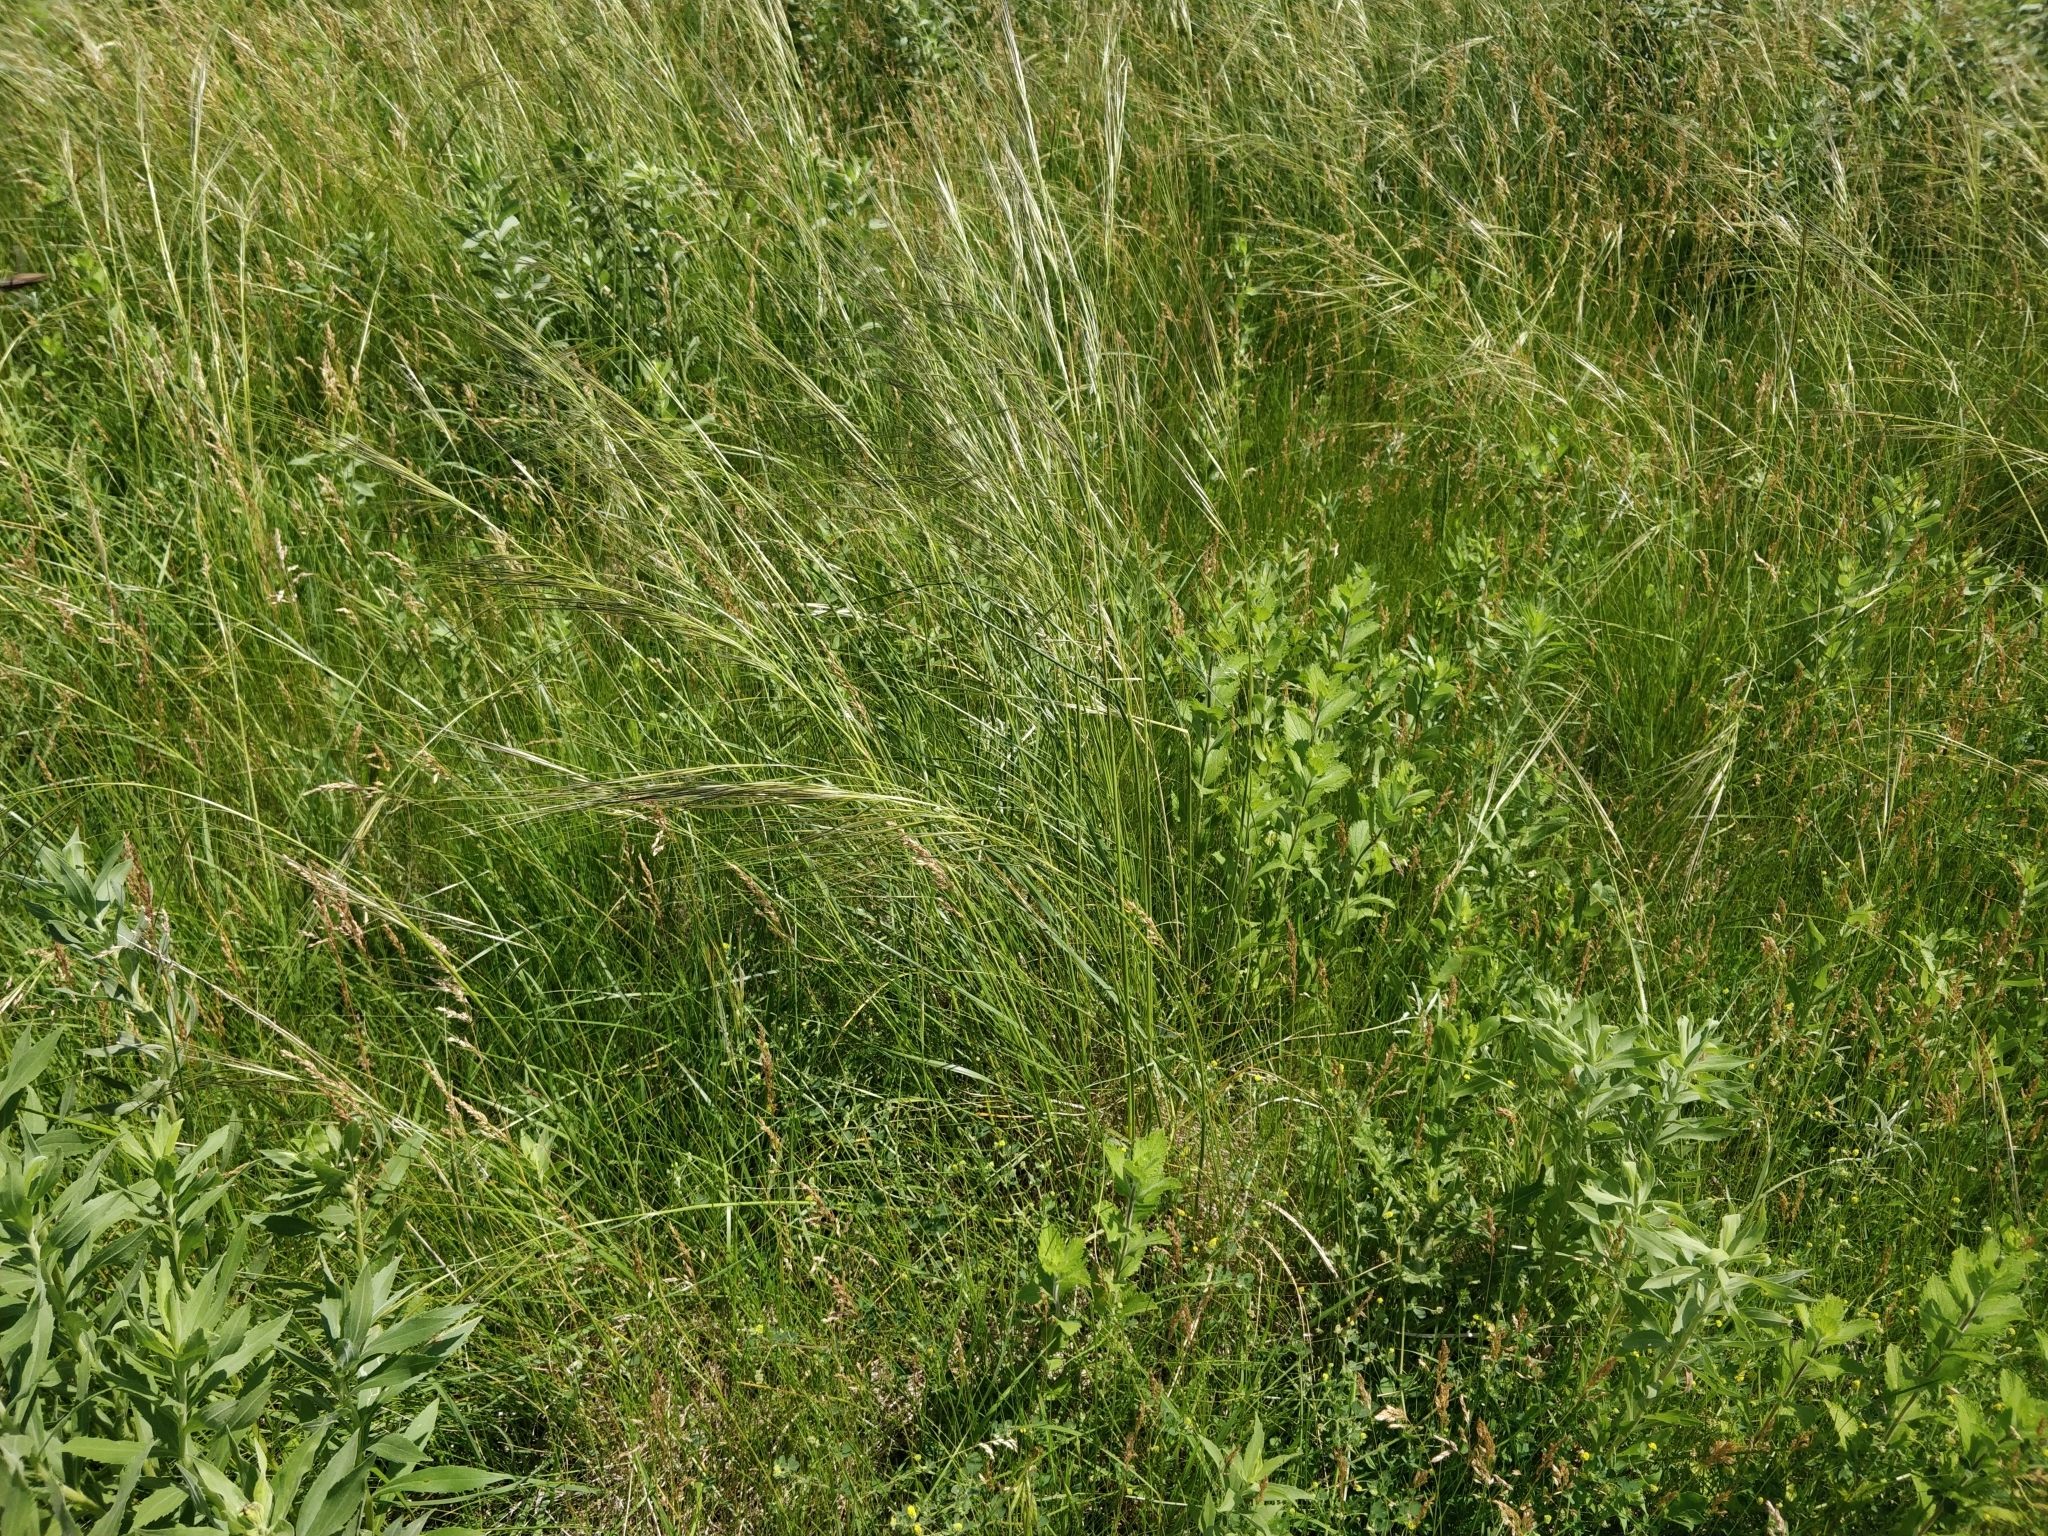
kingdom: Plantae
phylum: Tracheophyta
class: Liliopsida
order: Poales
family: Poaceae
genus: Hesperostipa
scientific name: Hesperostipa spartea
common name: Porcupine grass
